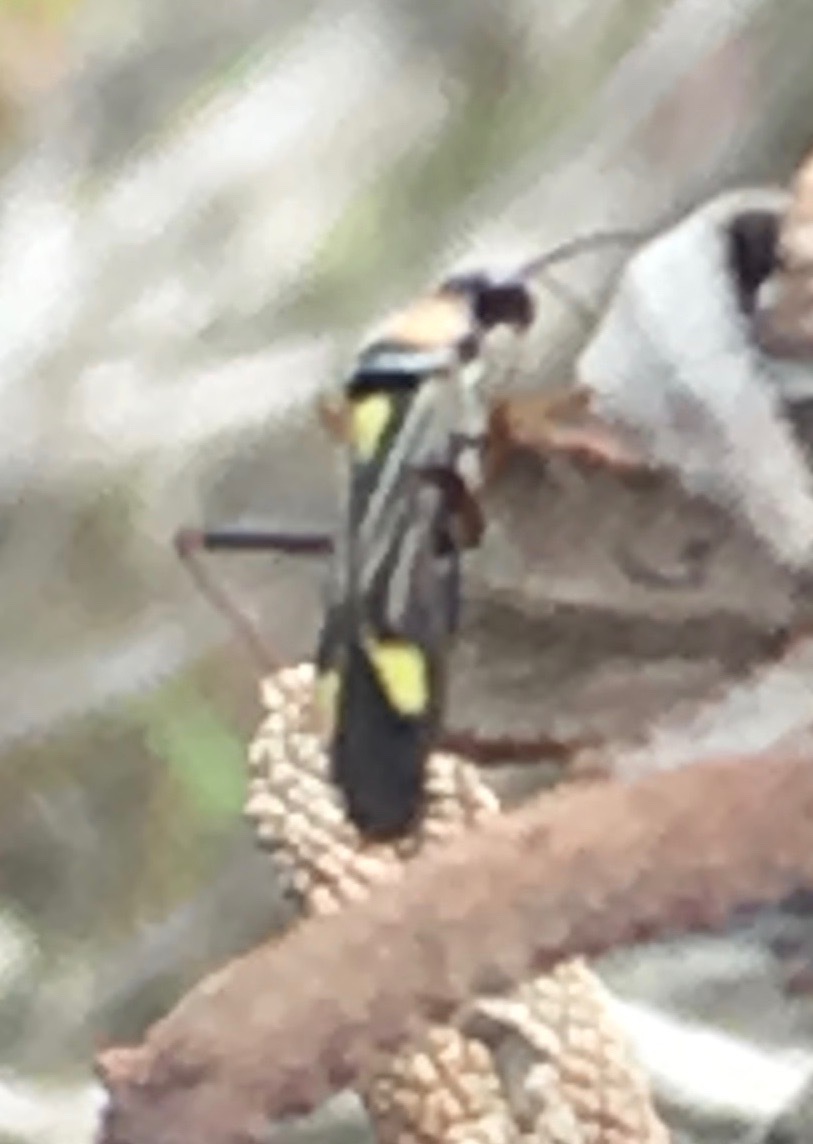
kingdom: Animalia
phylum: Arthropoda
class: Insecta
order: Hemiptera
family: Miridae
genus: Closterocoris
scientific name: Closterocoris amoenus
